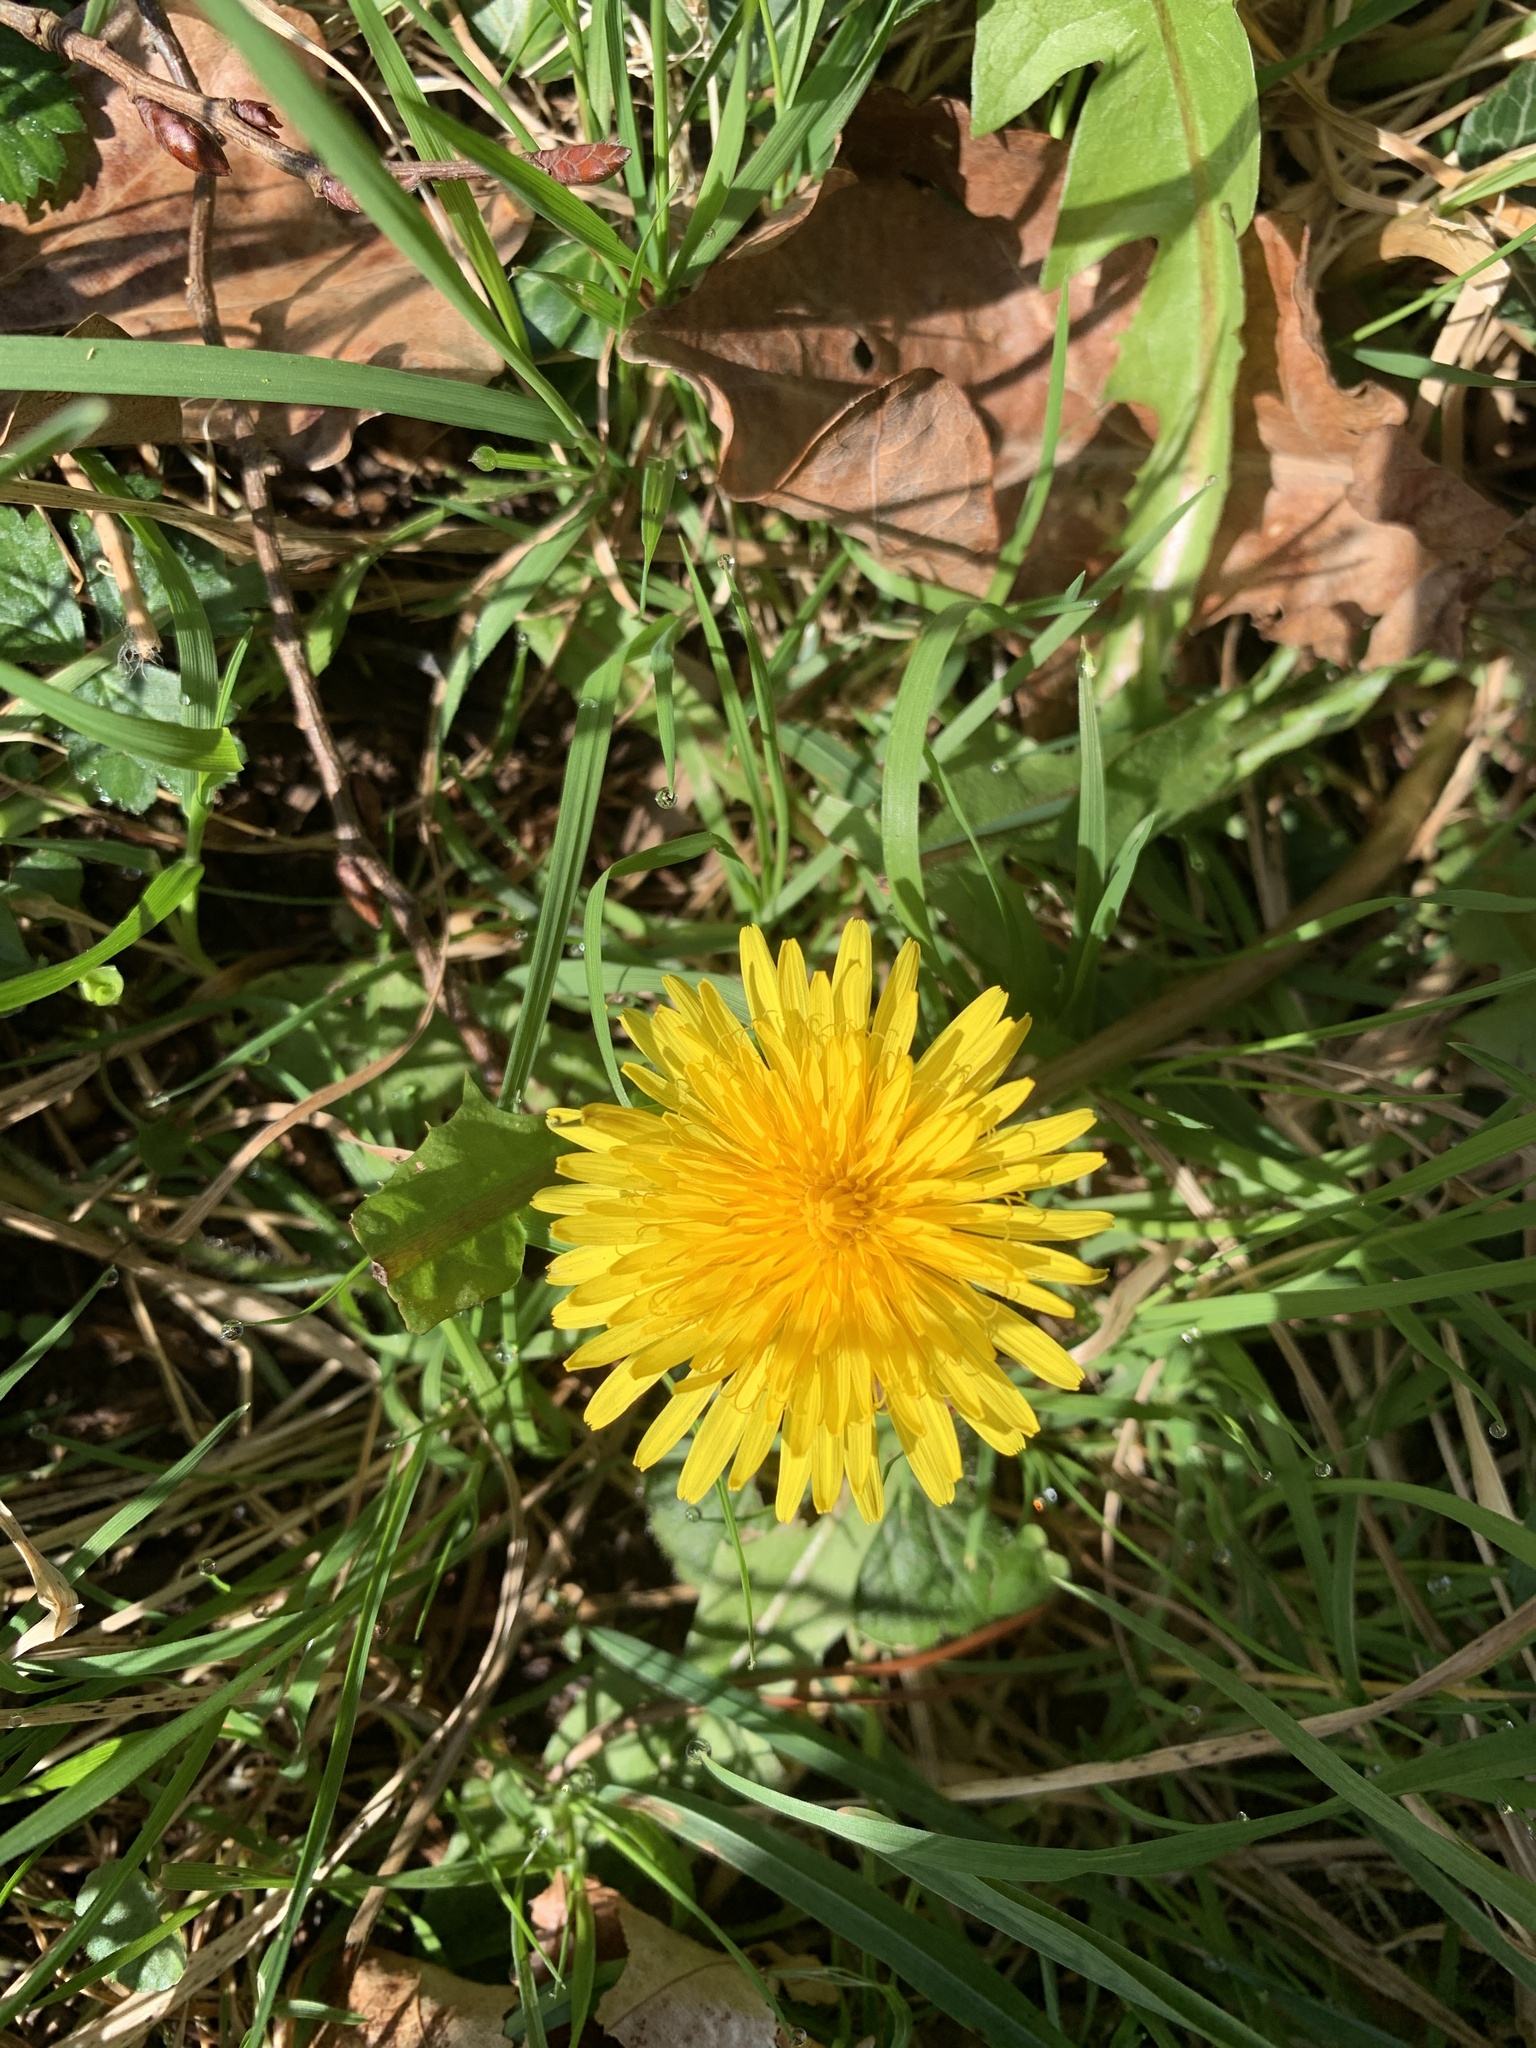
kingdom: Plantae
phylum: Tracheophyta
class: Magnoliopsida
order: Asterales
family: Asteraceae
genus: Taraxacum
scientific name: Taraxacum officinale
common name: Common dandelion
